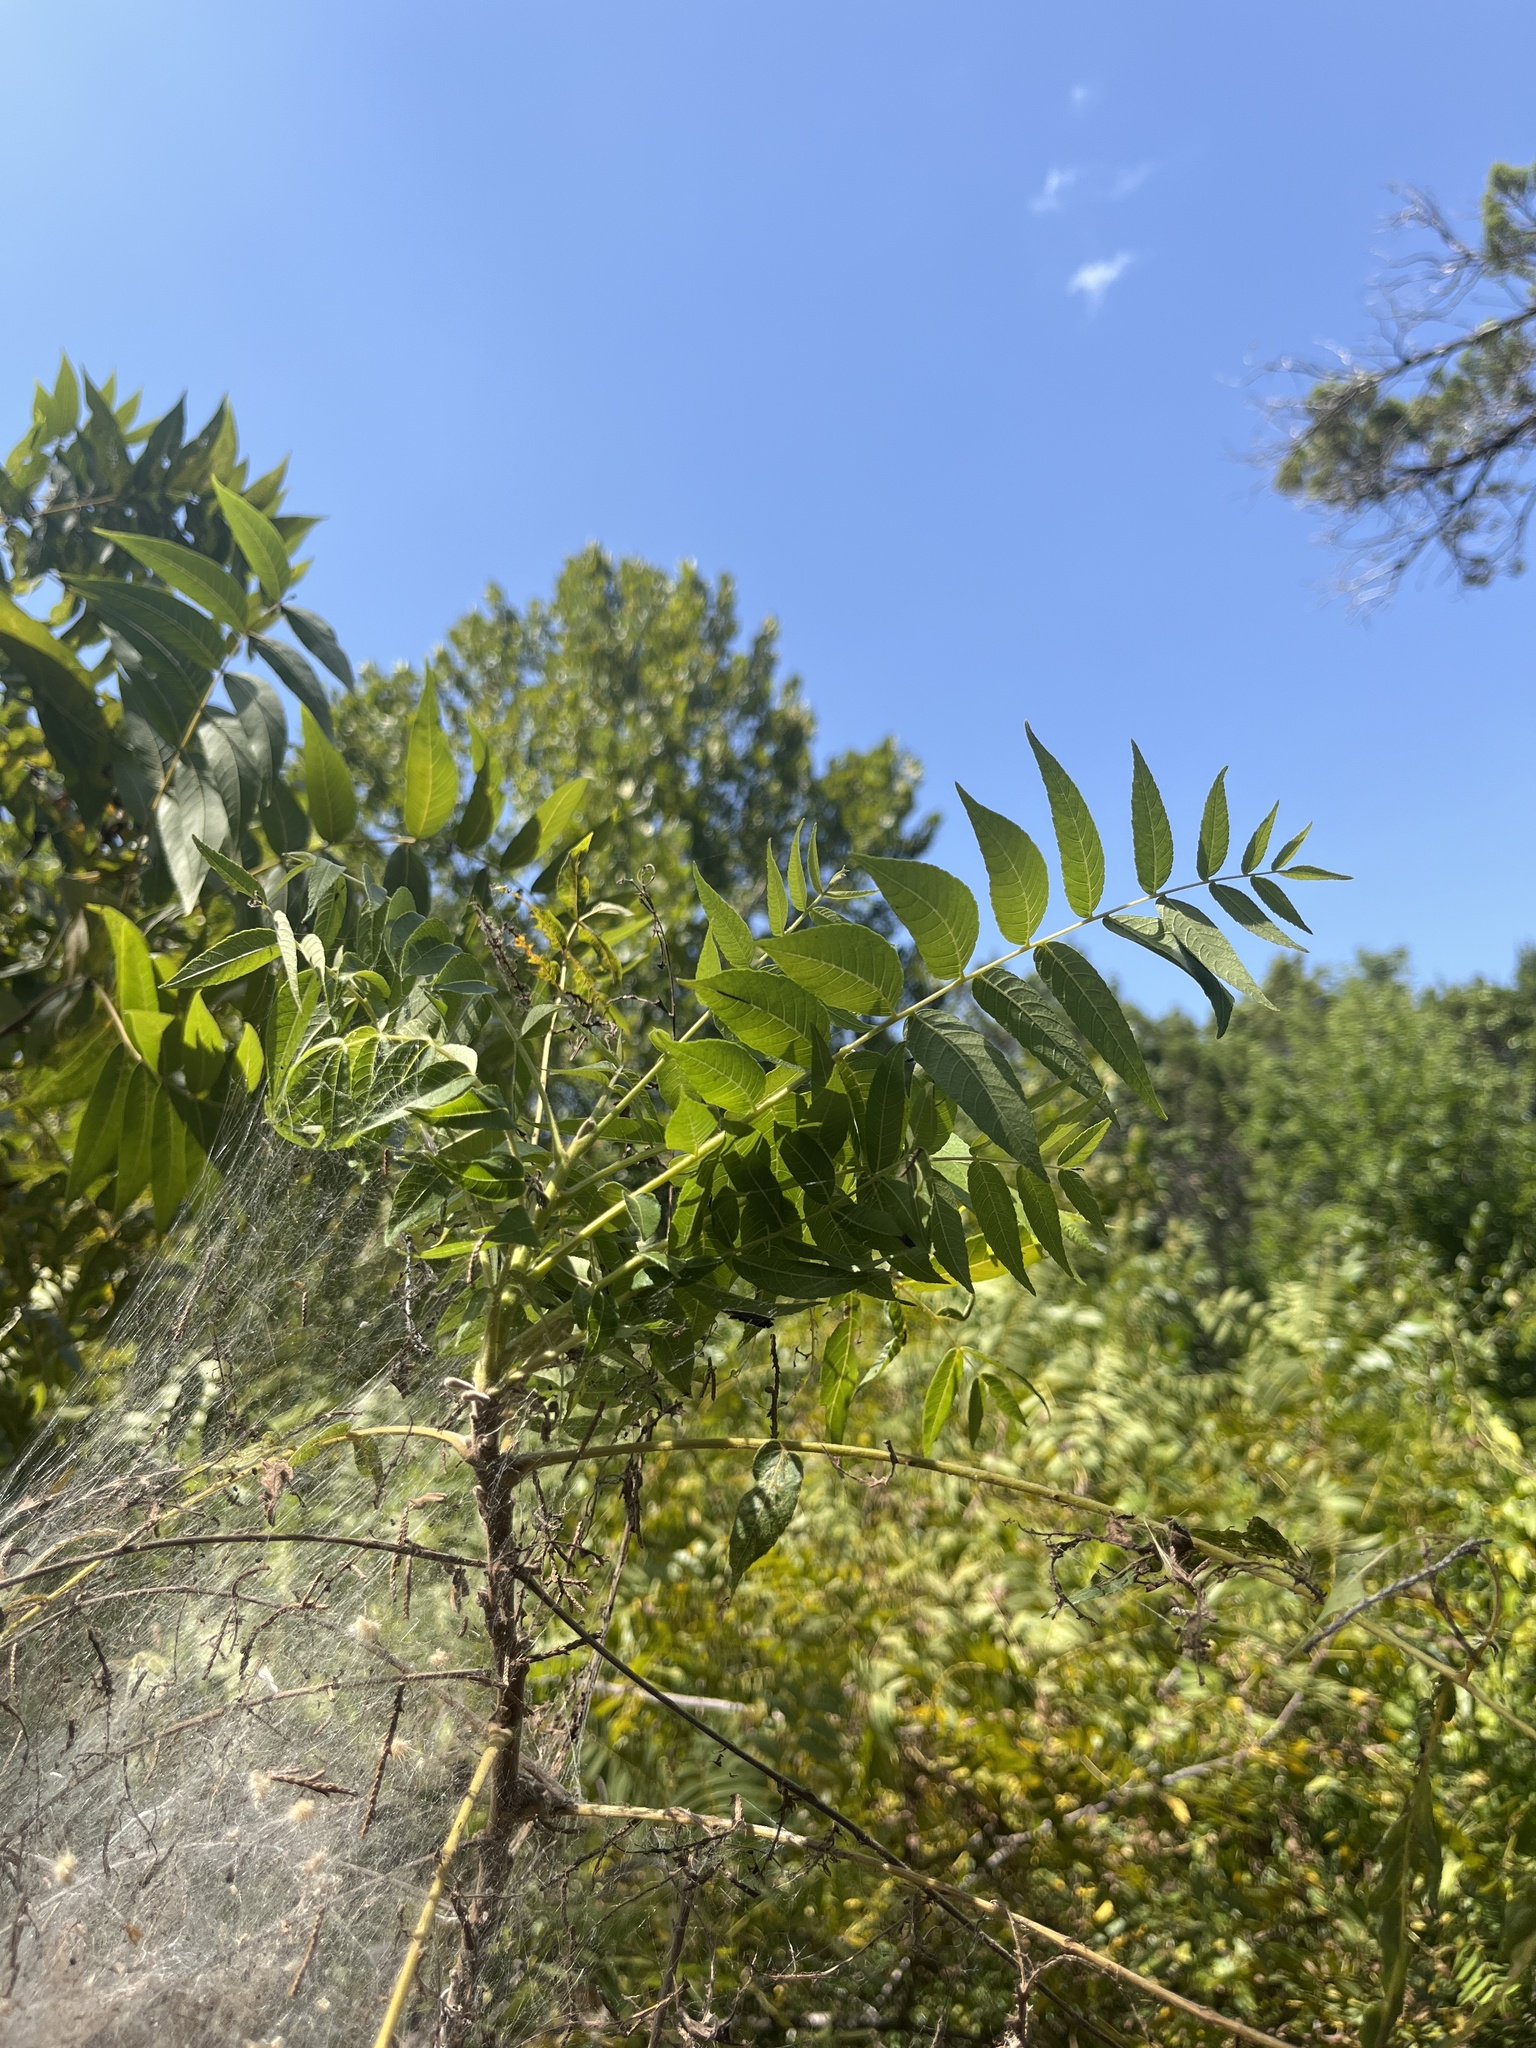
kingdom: Animalia
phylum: Arthropoda
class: Insecta
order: Lepidoptera
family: Erebidae
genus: Hyphantria
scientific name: Hyphantria cunea
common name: American white moth
